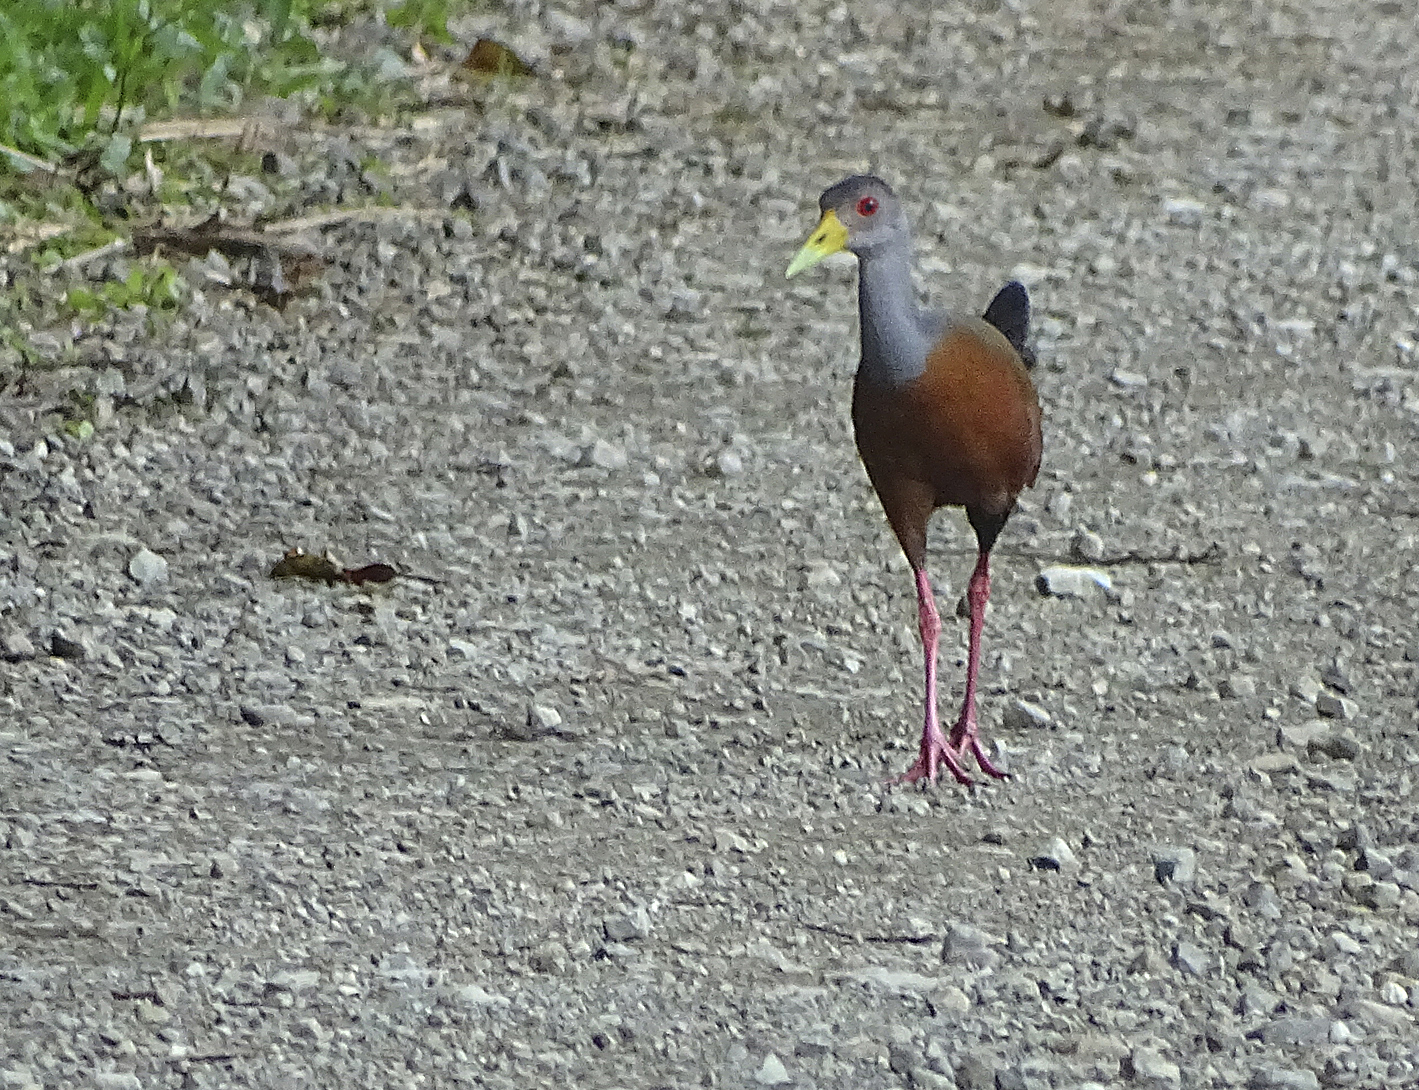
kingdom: Animalia
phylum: Chordata
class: Aves
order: Gruiformes
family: Rallidae
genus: Aramides
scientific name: Aramides cajanea
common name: Gray-necked wood-rail
